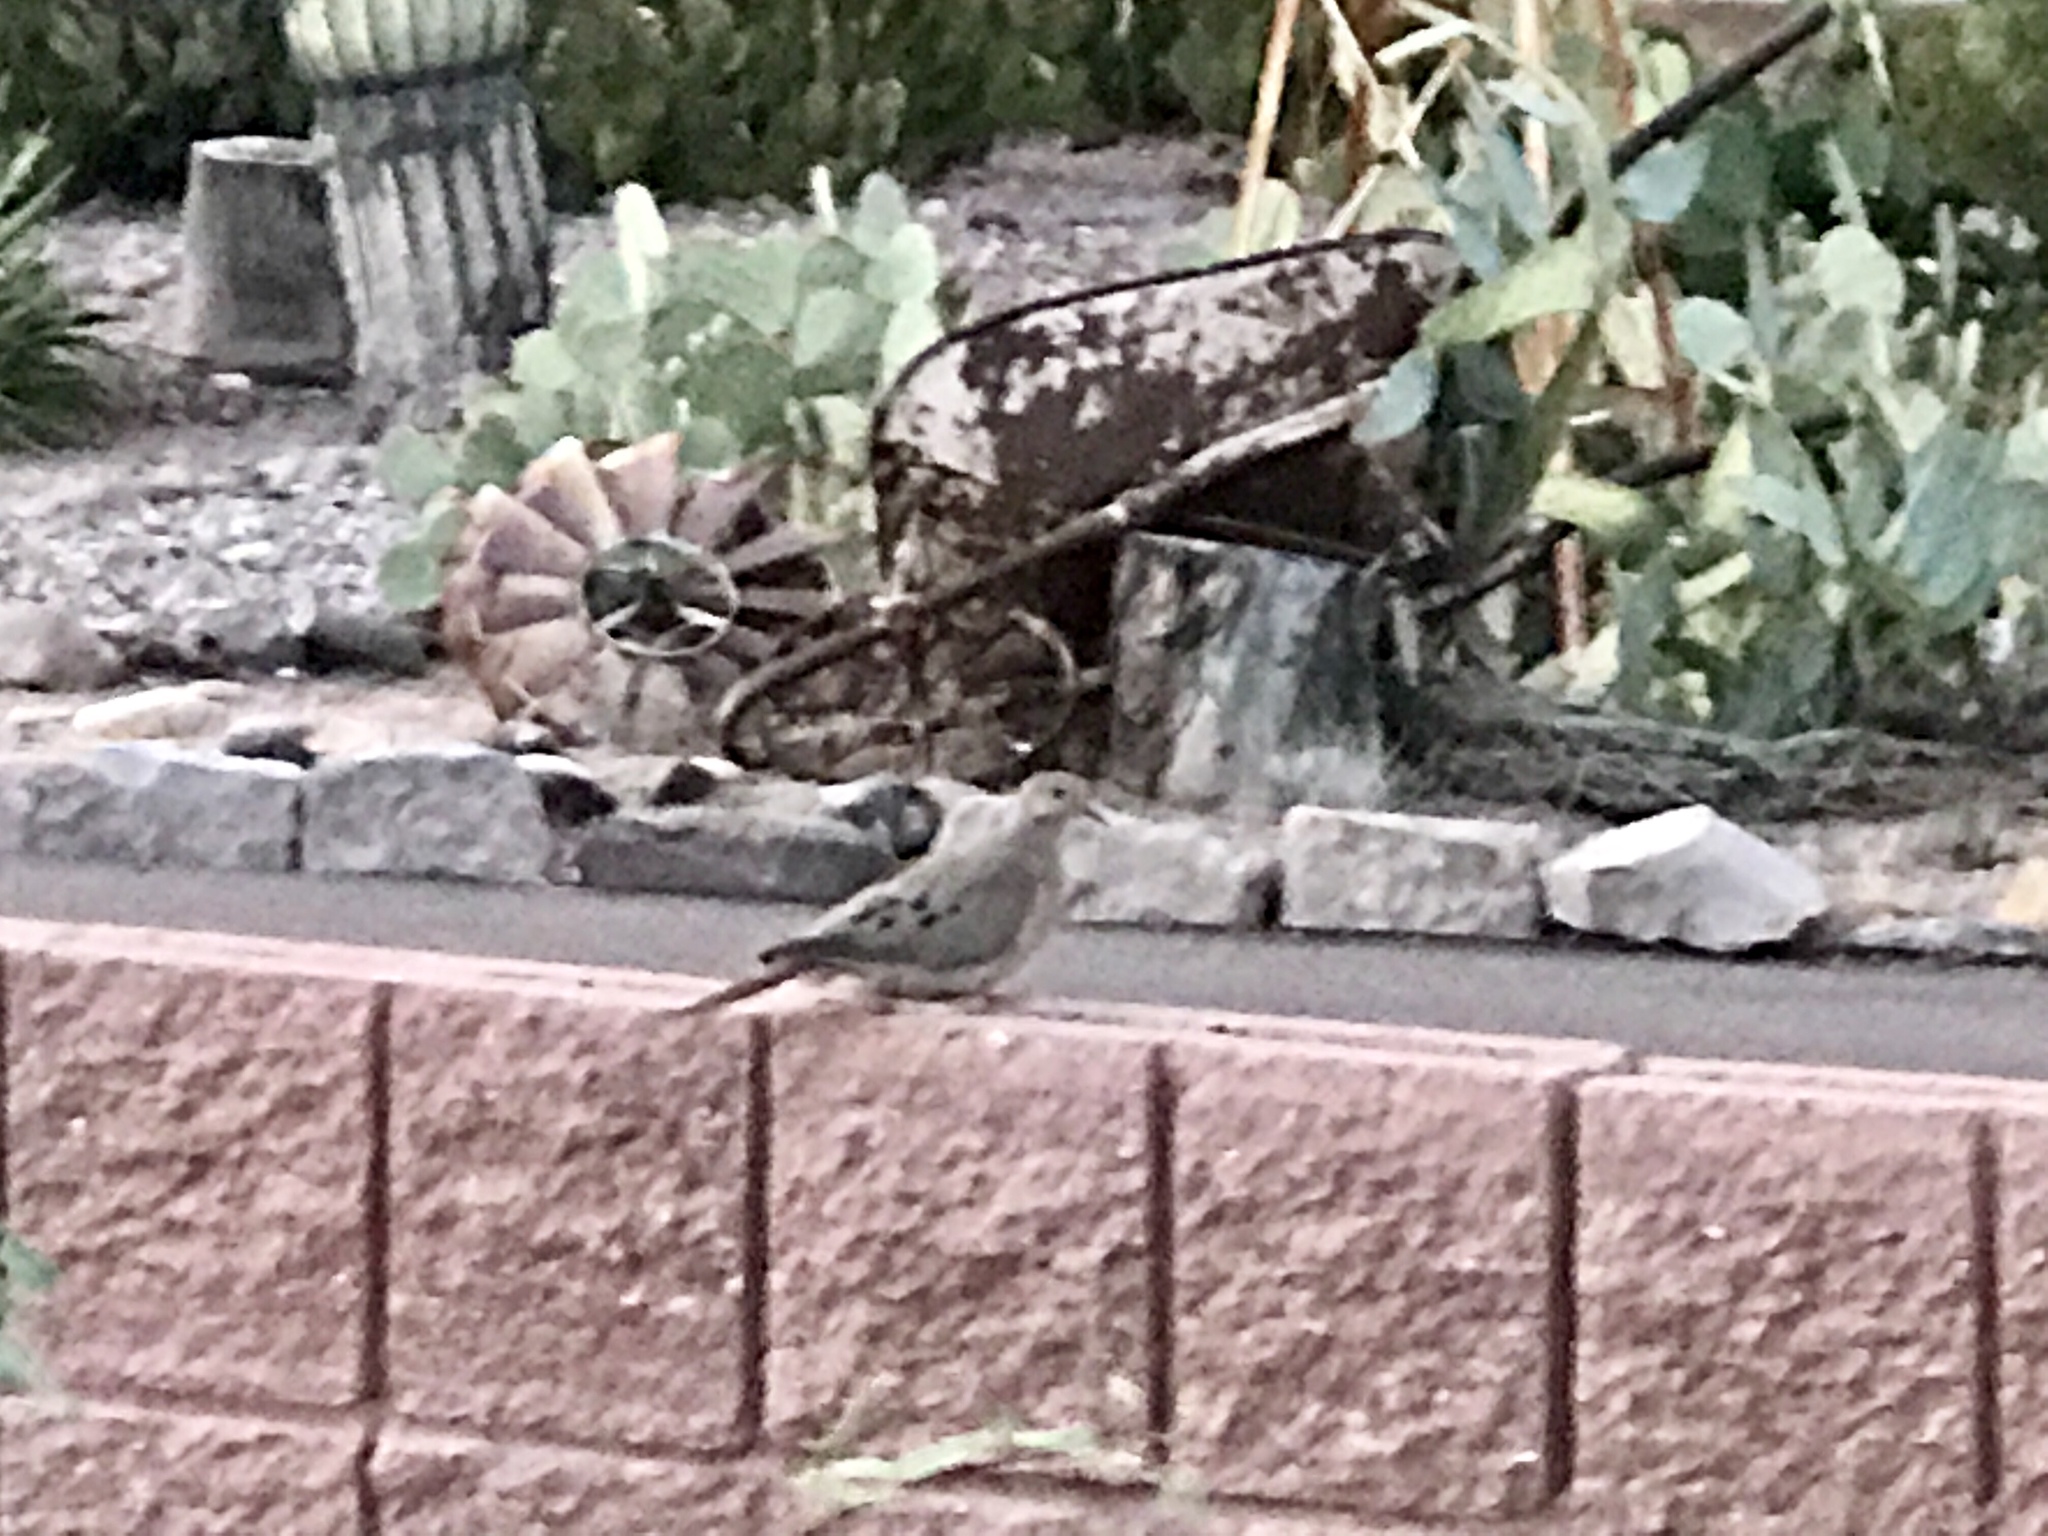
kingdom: Animalia
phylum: Chordata
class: Aves
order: Columbiformes
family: Columbidae
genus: Zenaida
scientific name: Zenaida macroura
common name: Mourning dove
